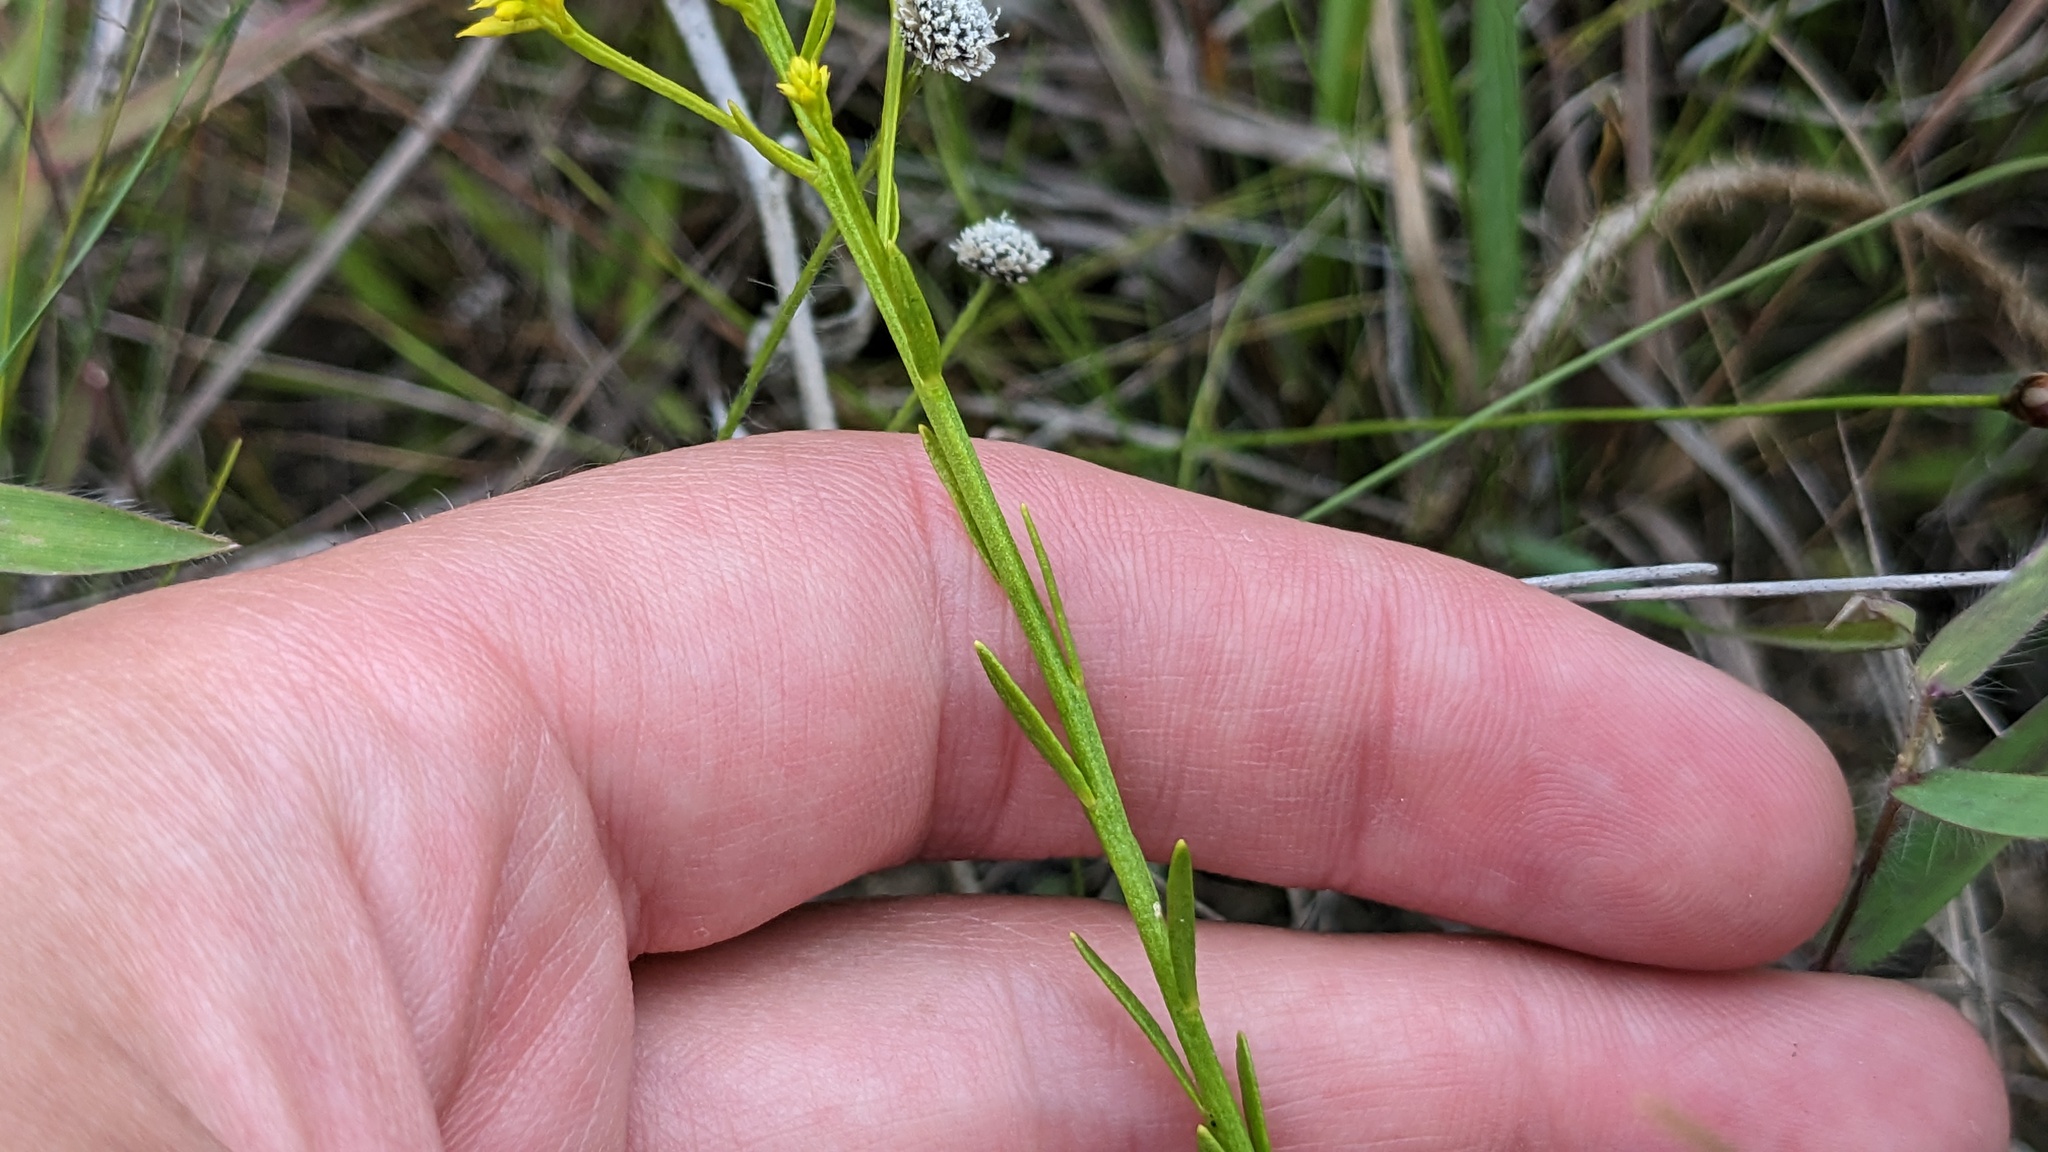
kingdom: Plantae
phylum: Tracheophyta
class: Magnoliopsida
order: Fabales
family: Polygalaceae
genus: Polygala
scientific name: Polygala ramosa
